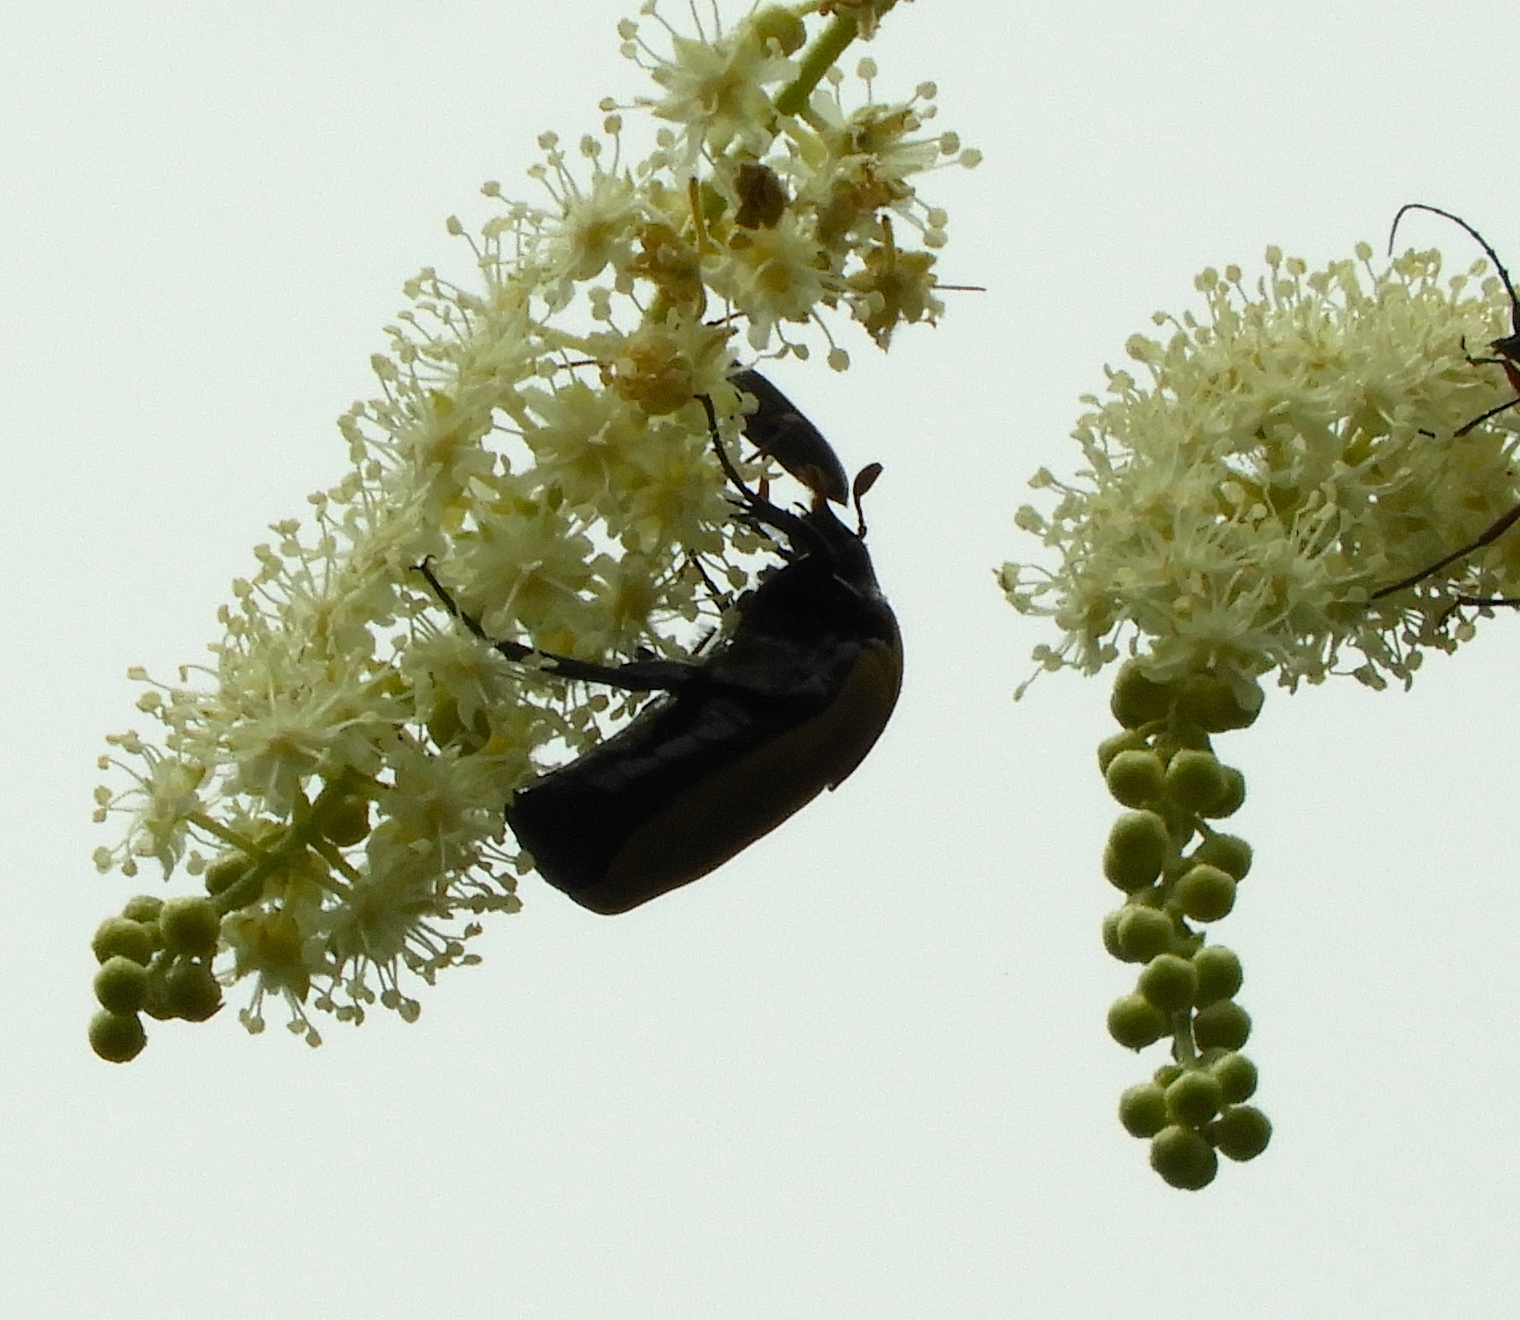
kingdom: Animalia
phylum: Arthropoda
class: Insecta
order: Coleoptera
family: Scarabaeidae
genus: Hologymnetis
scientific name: Hologymnetis cinerea
